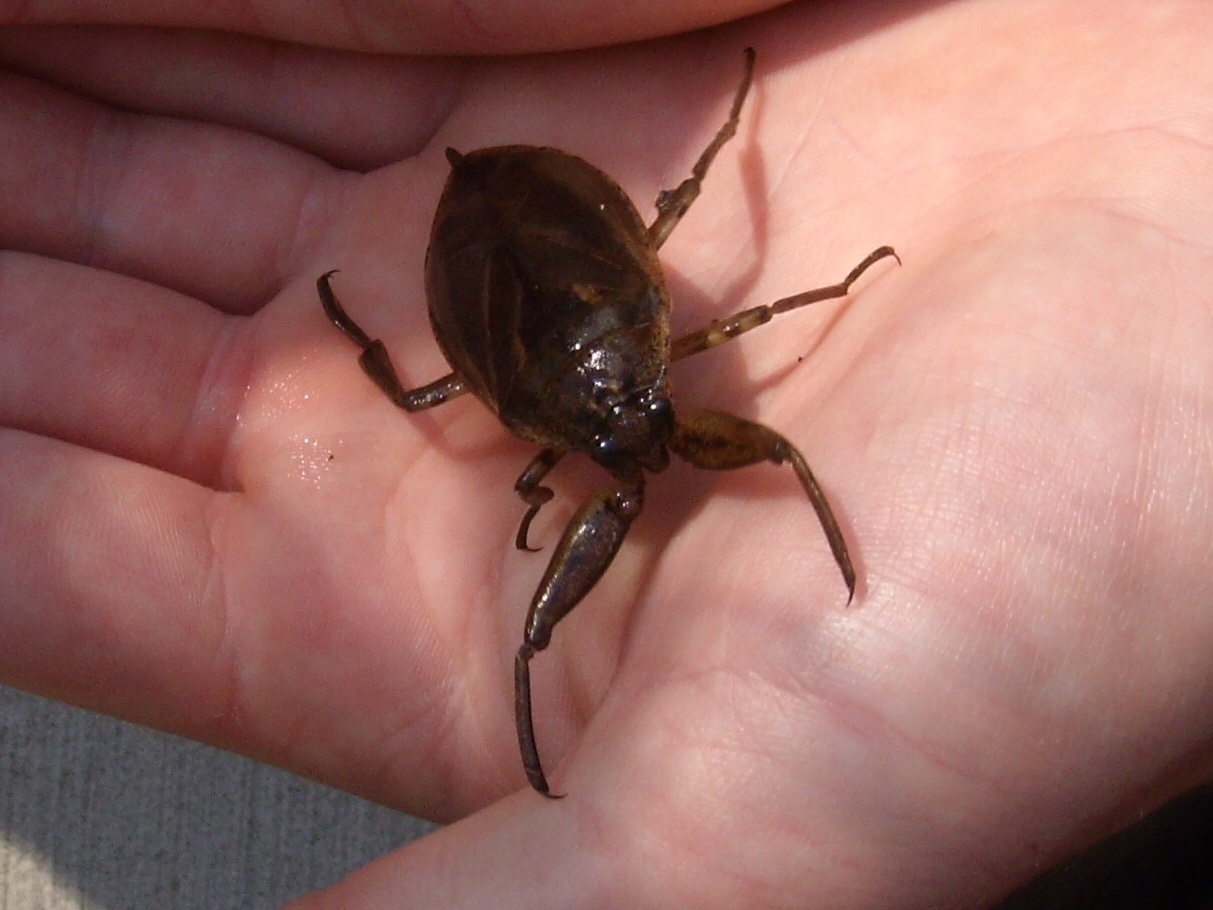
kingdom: Animalia
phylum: Arthropoda
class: Insecta
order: Hemiptera
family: Belostomatidae
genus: Lethocerus
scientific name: Lethocerus americanus
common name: Giant water bug
